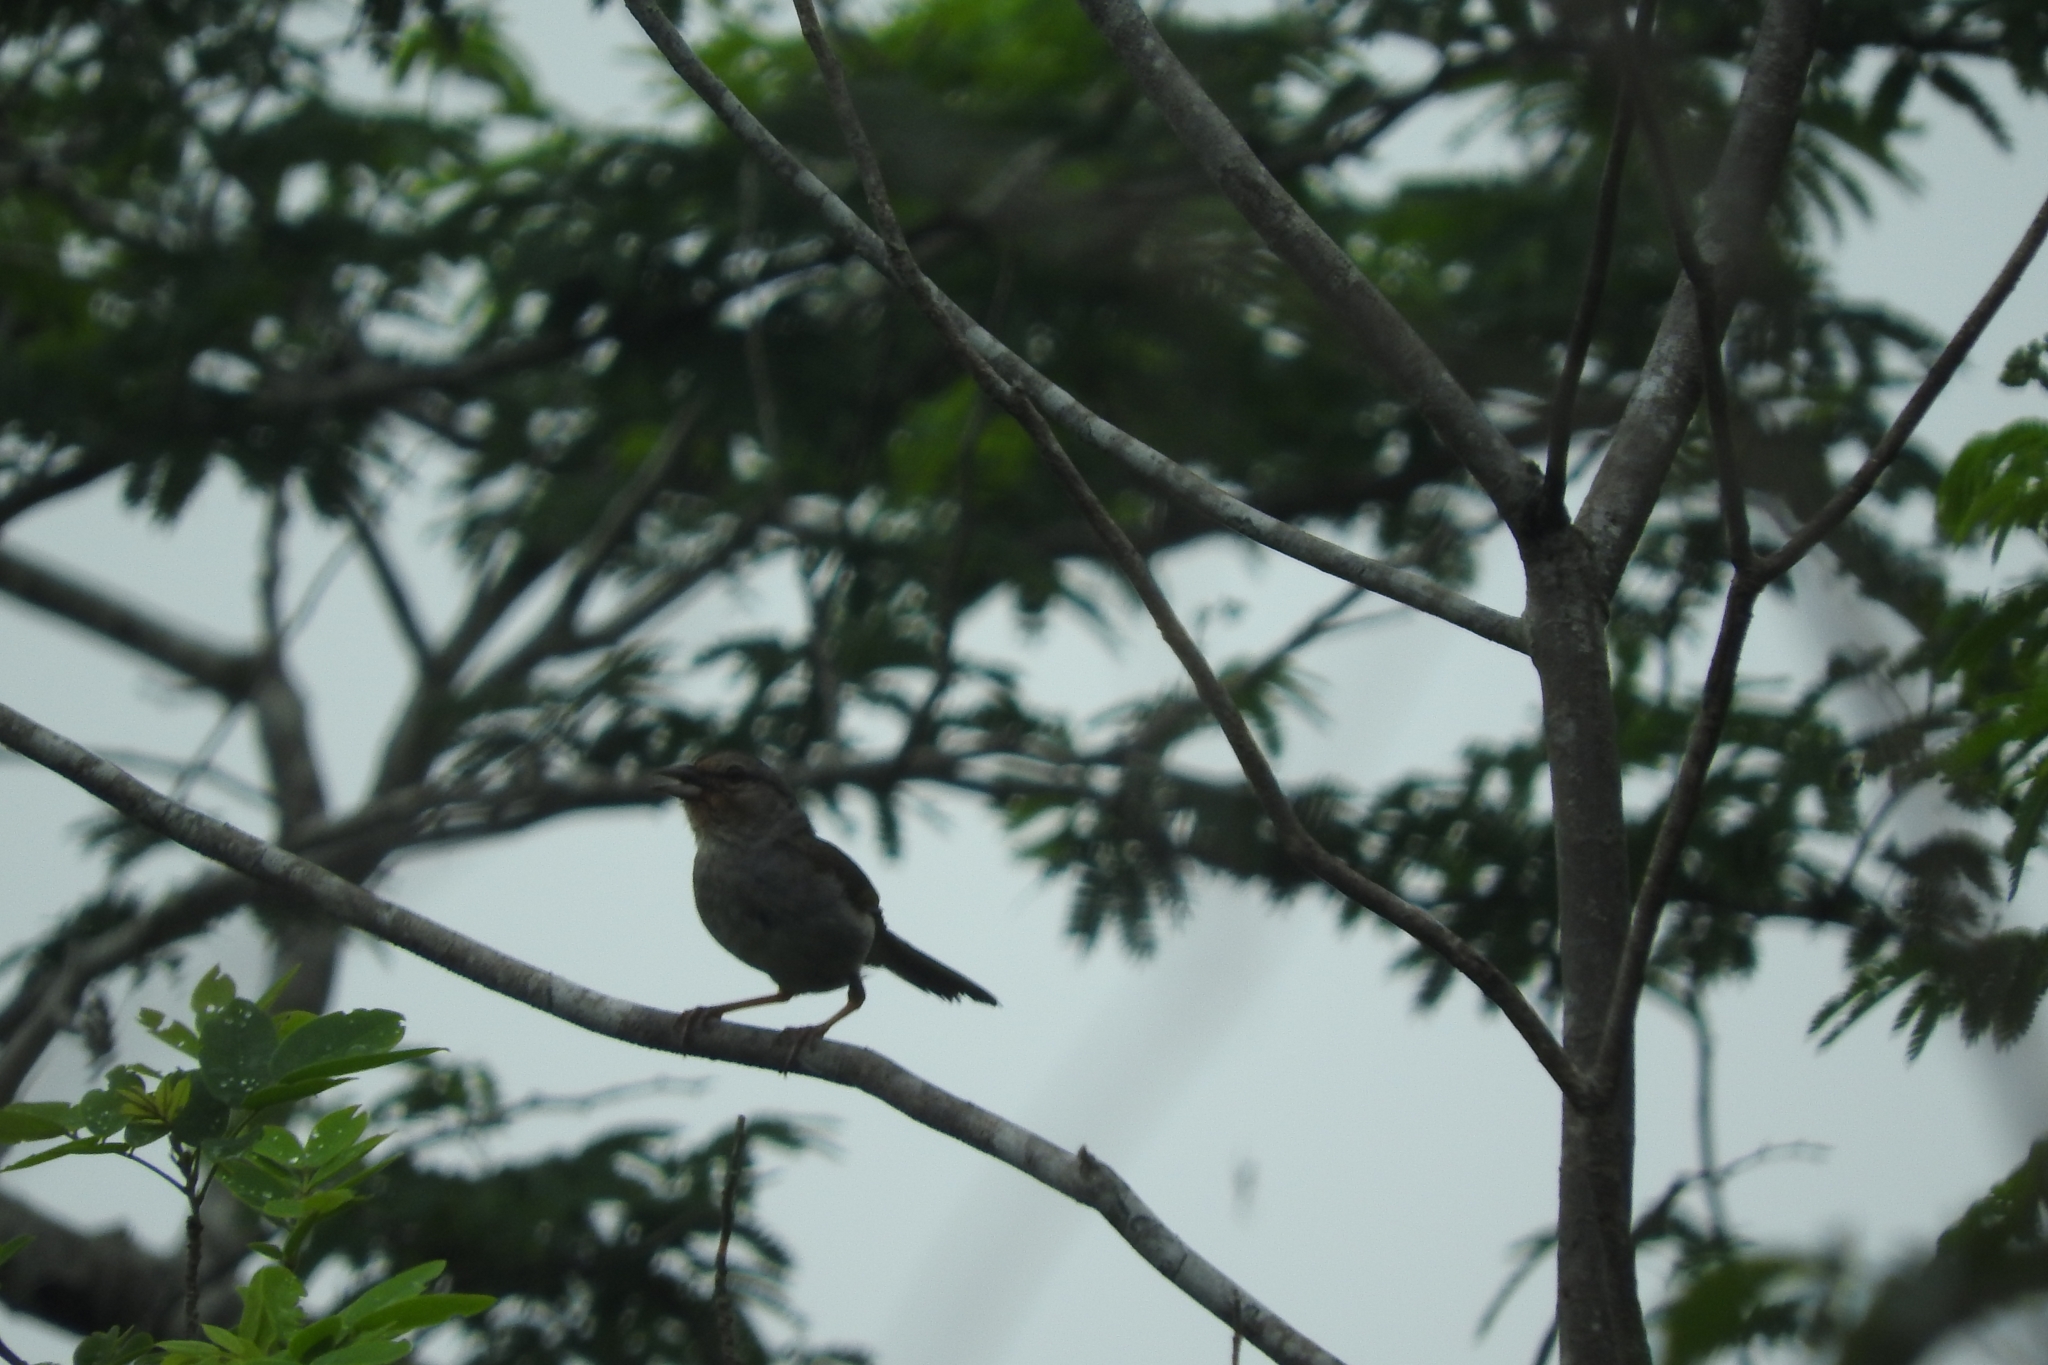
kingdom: Animalia
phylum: Chordata
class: Aves
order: Passeriformes
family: Passerellidae
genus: Arremonops
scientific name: Arremonops rufivirgatus
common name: Olive sparrow
